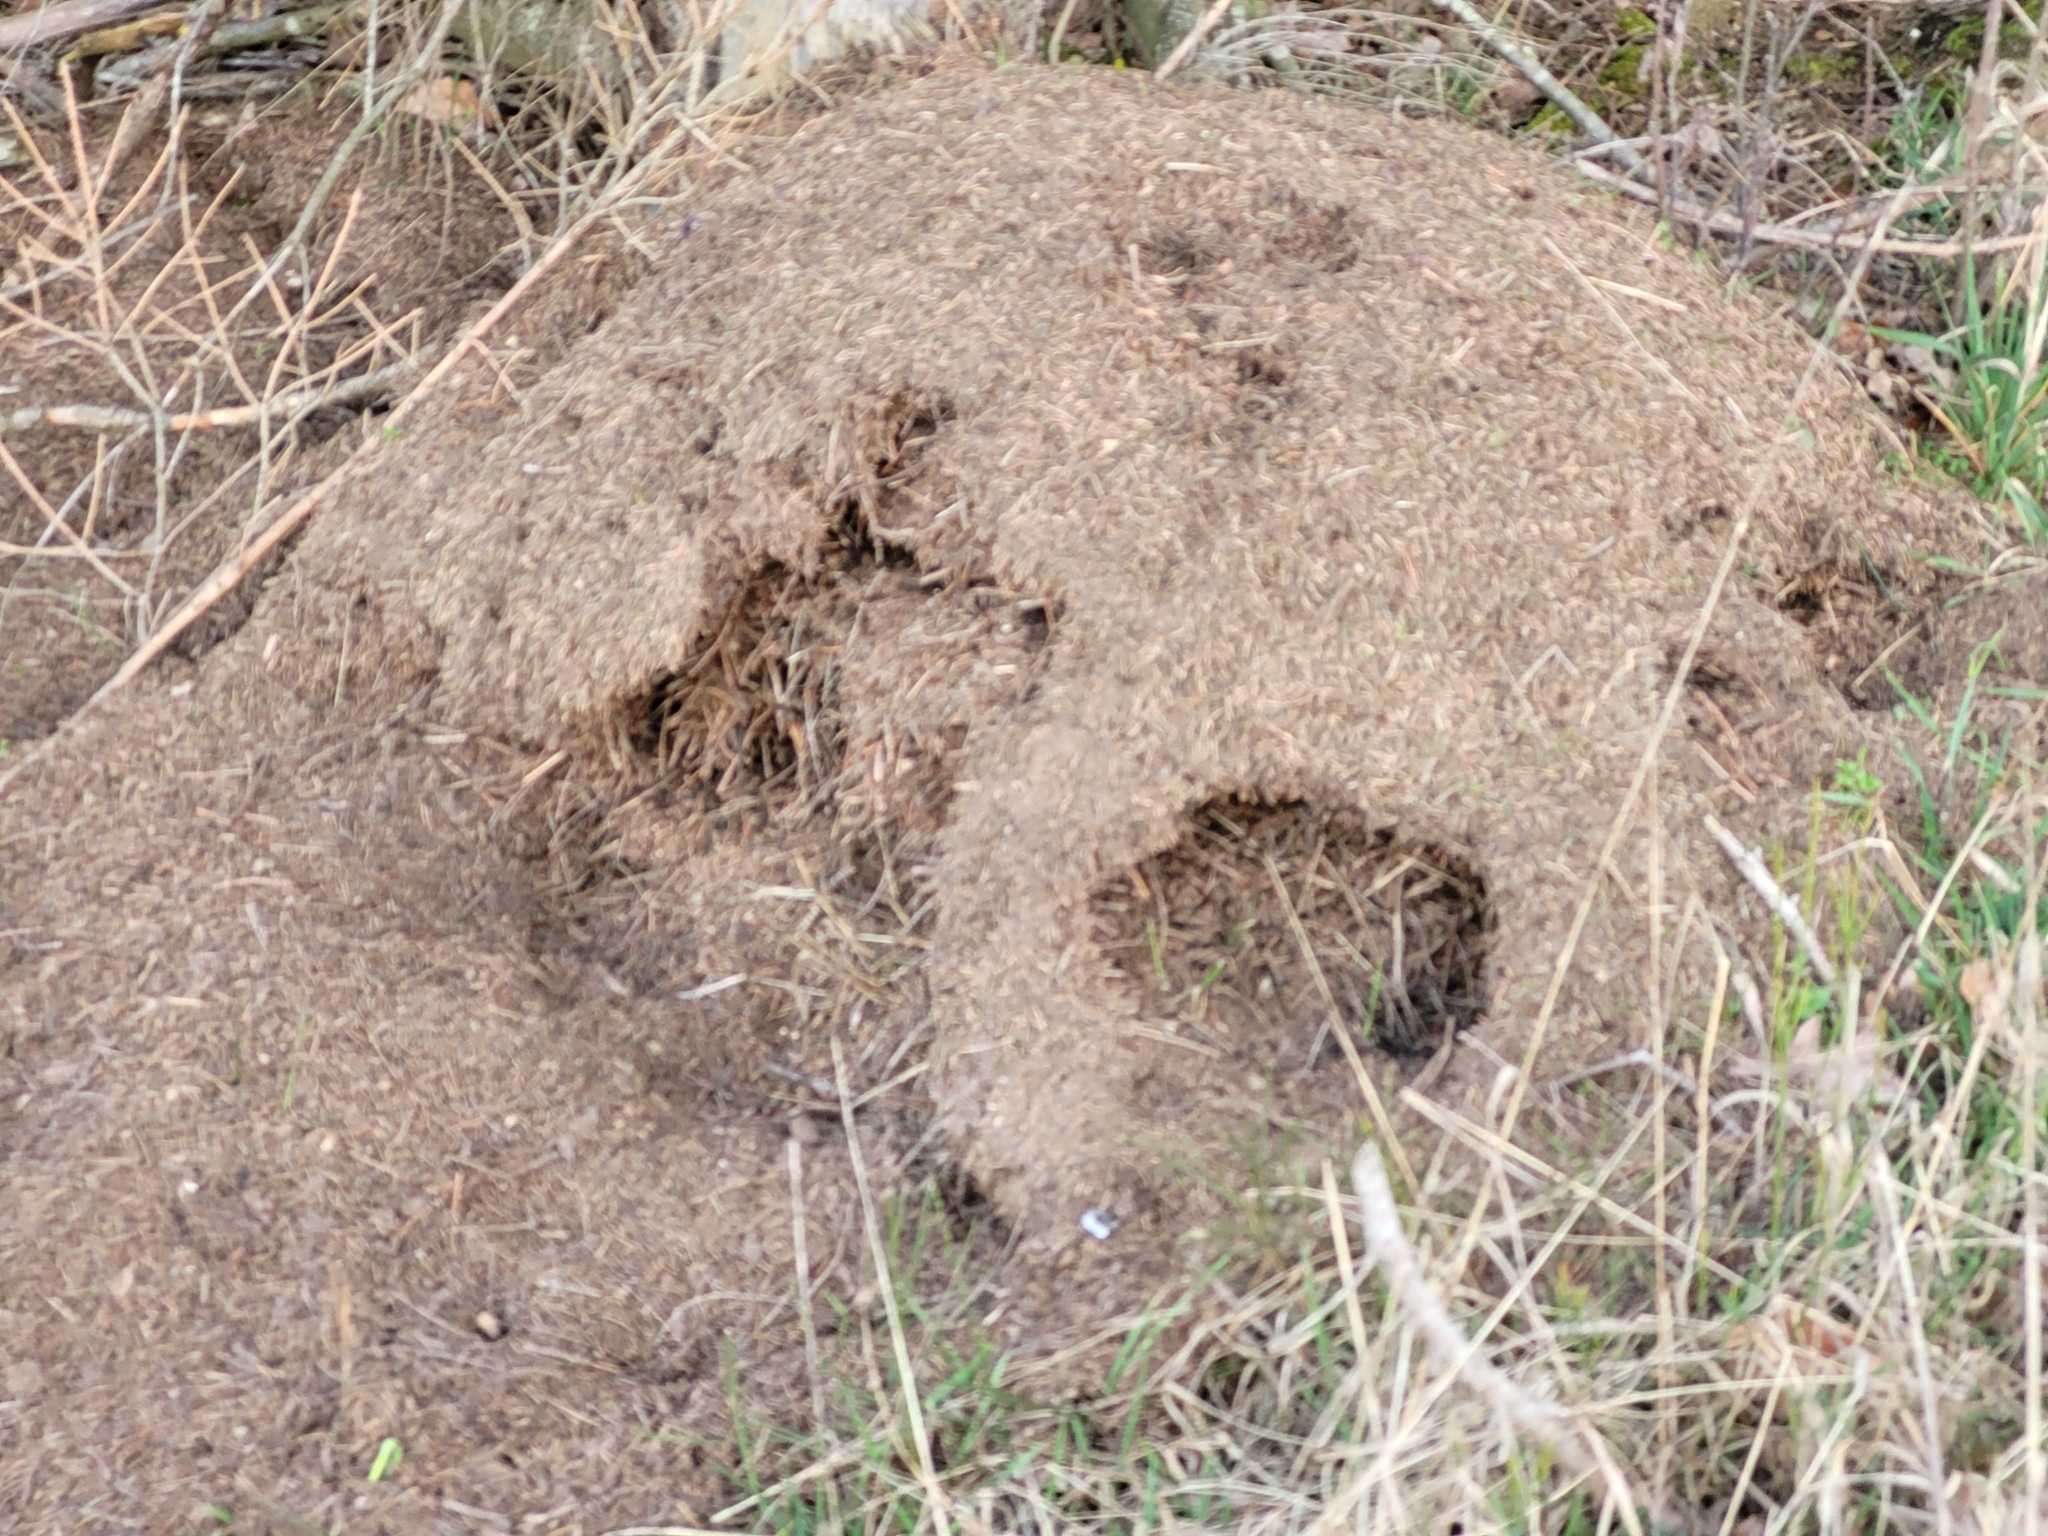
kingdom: Animalia
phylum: Arthropoda
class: Insecta
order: Hymenoptera
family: Formicidae
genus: Formica
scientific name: Formica
